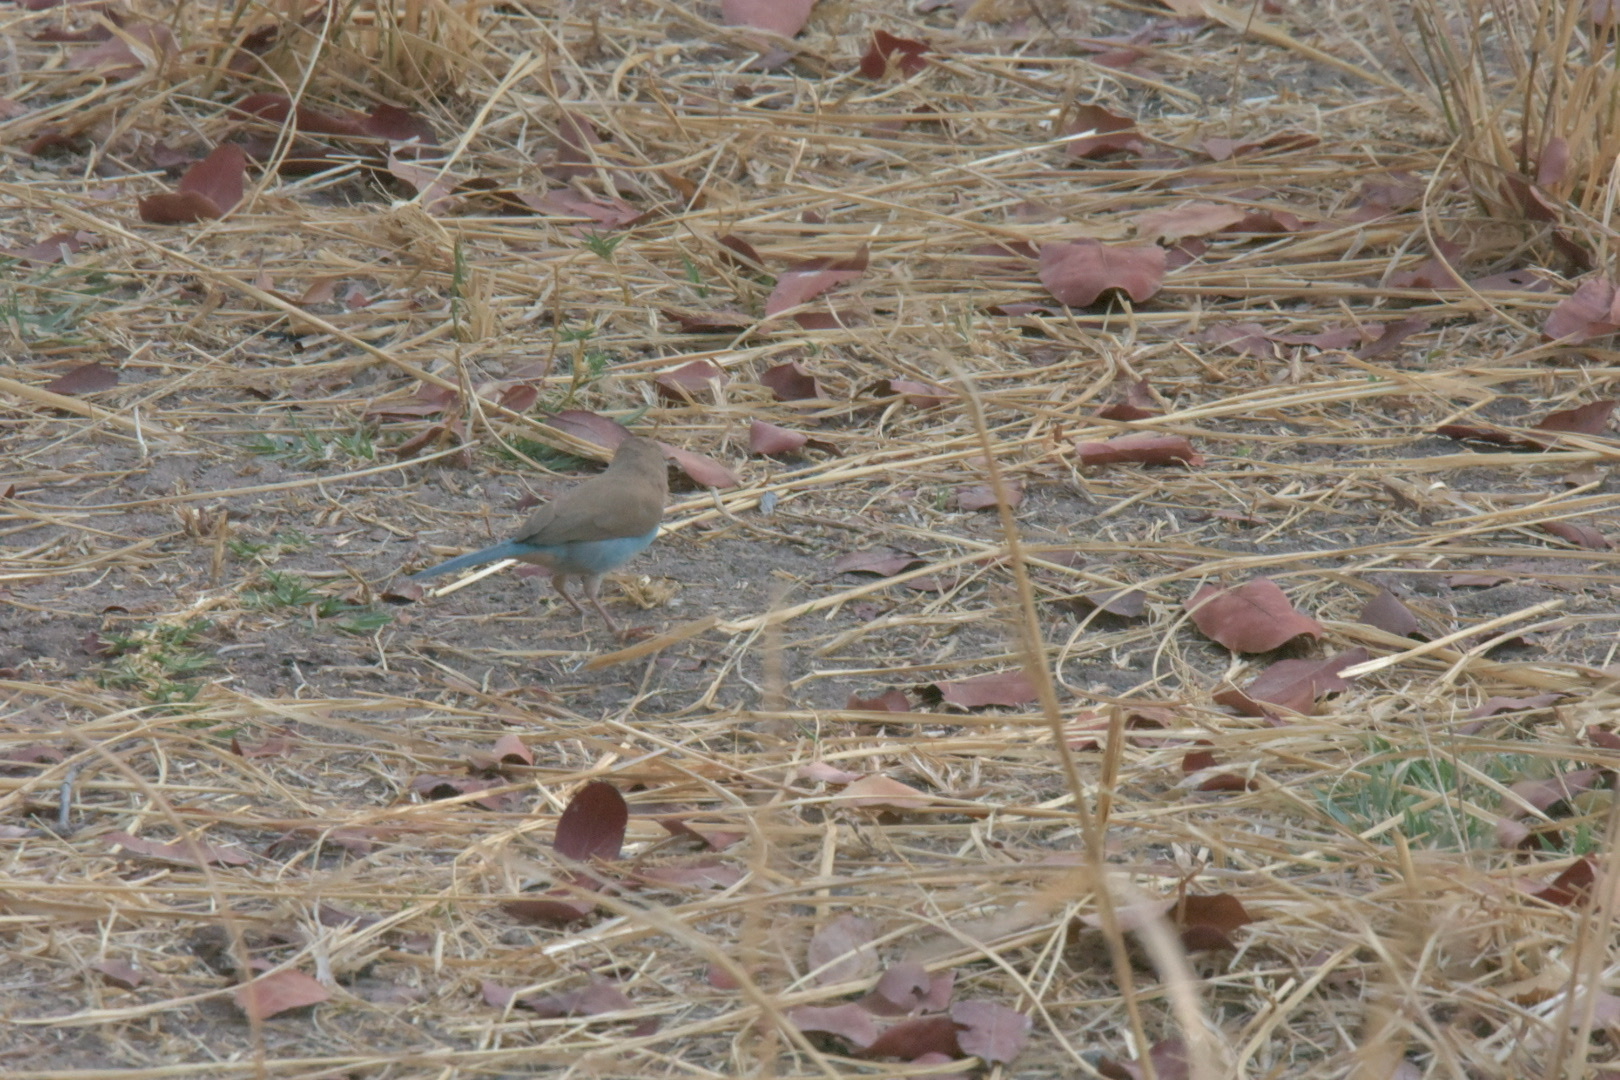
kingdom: Animalia
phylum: Chordata
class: Aves
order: Passeriformes
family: Estrildidae
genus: Uraeginthus
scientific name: Uraeginthus angolensis
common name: Blue waxbill
